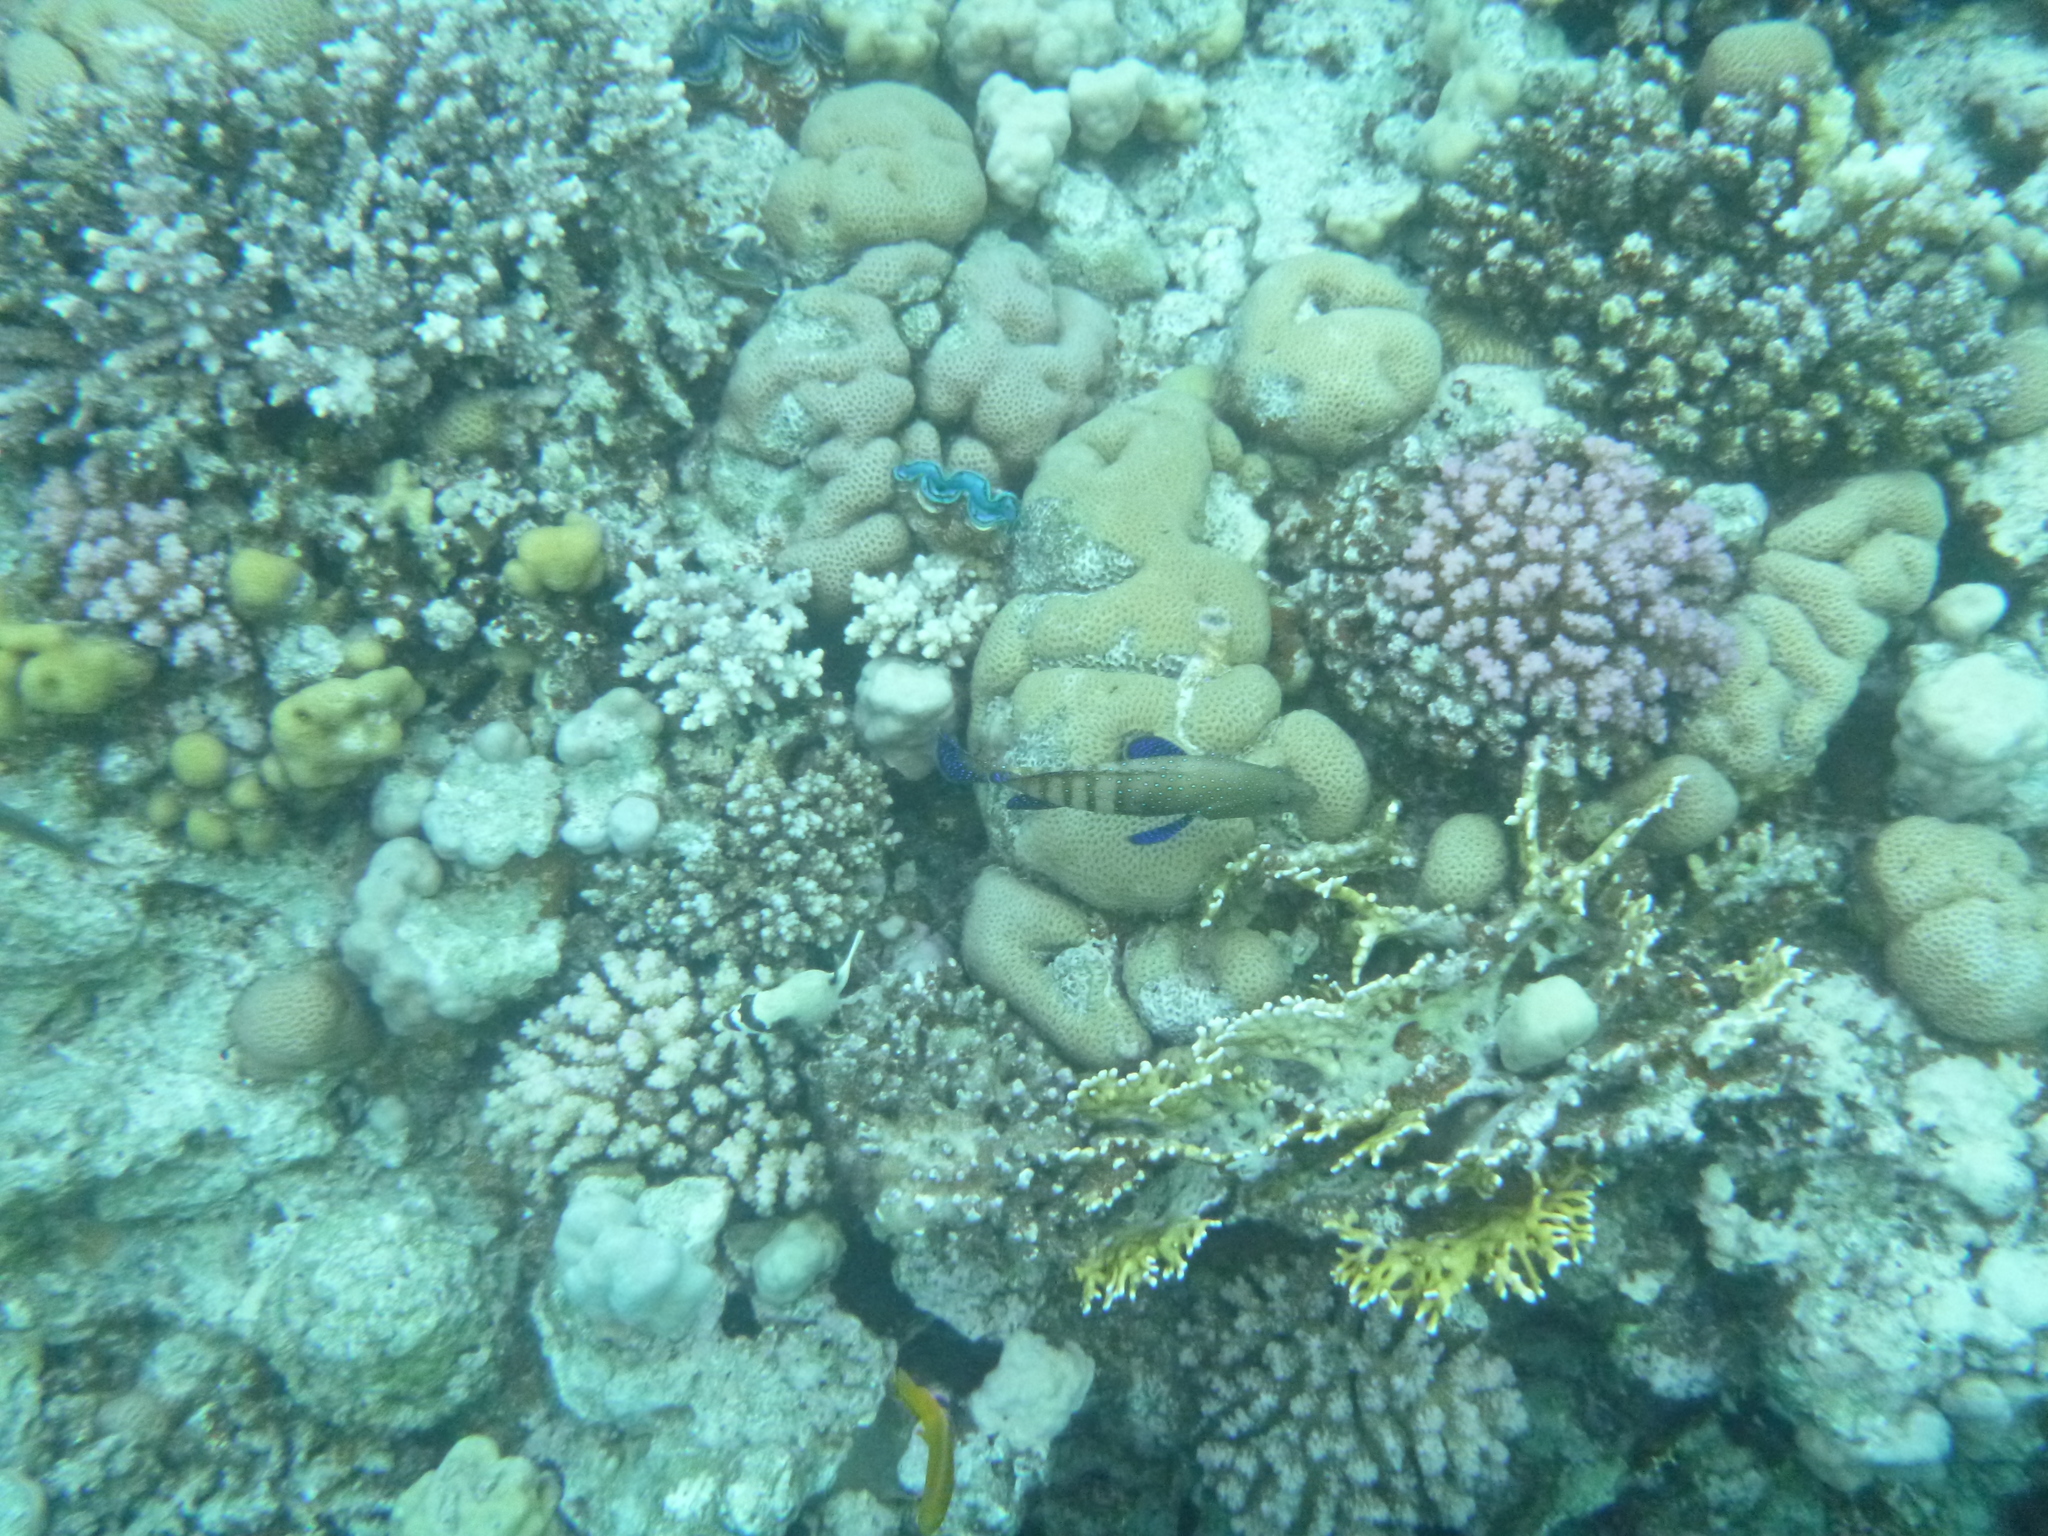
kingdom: Animalia
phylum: Chordata
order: Perciformes
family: Serranidae
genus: Cephalopholis
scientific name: Cephalopholis argus
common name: Peacock grouper
